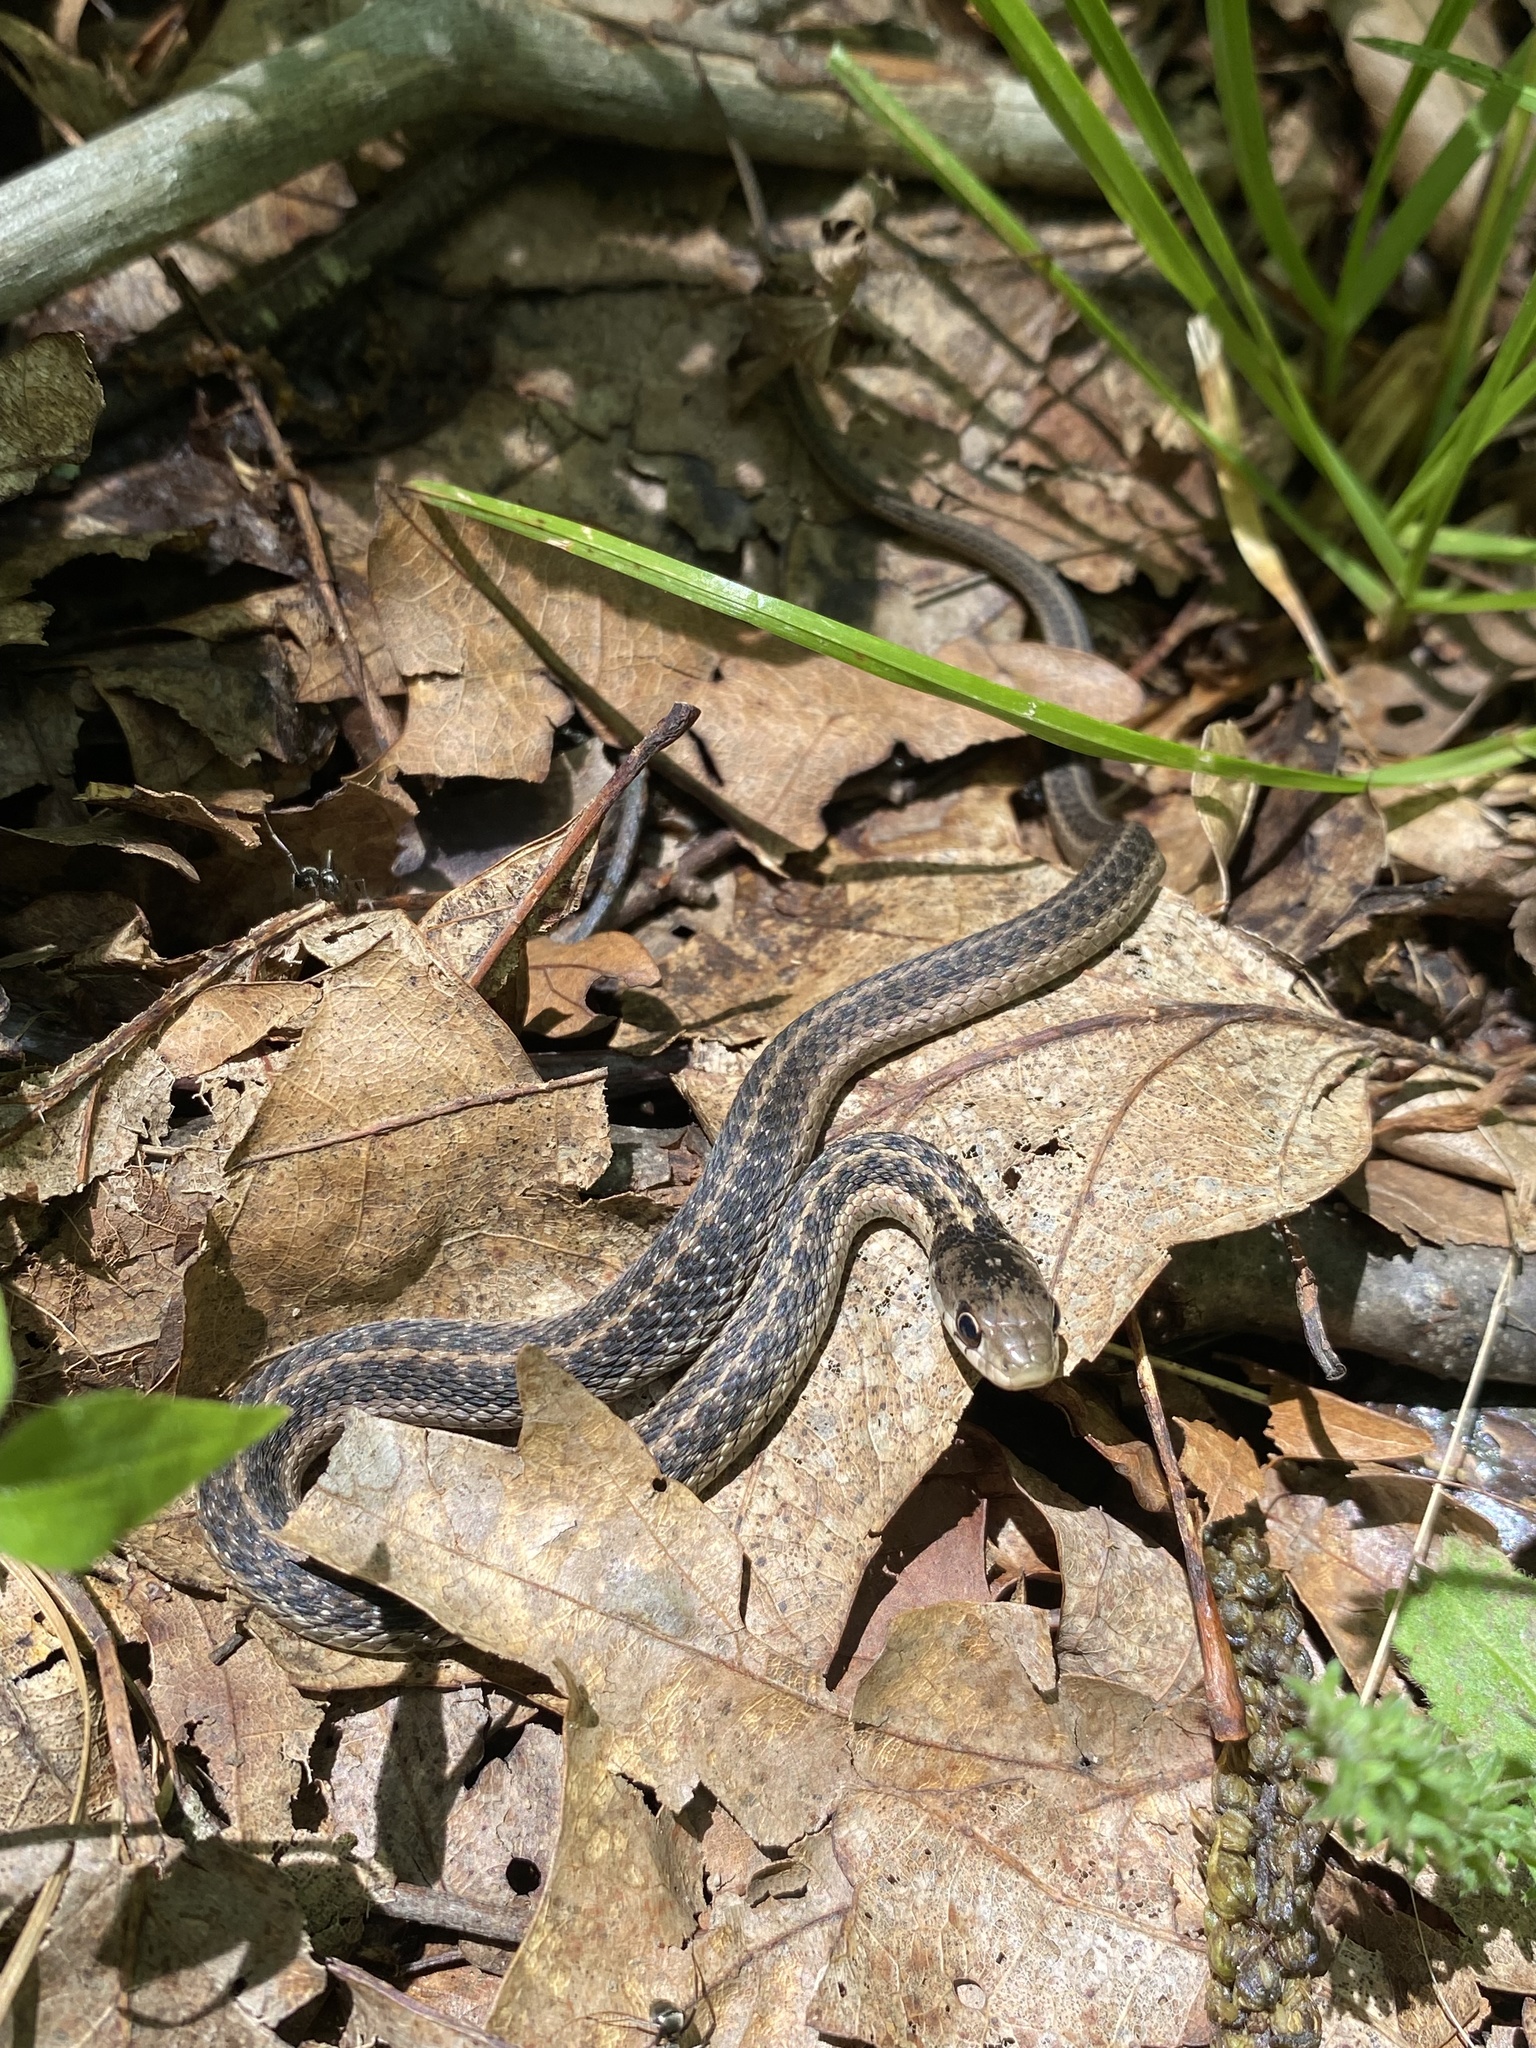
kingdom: Animalia
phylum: Chordata
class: Squamata
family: Colubridae
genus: Thamnophis
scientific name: Thamnophis sirtalis
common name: Common garter snake
